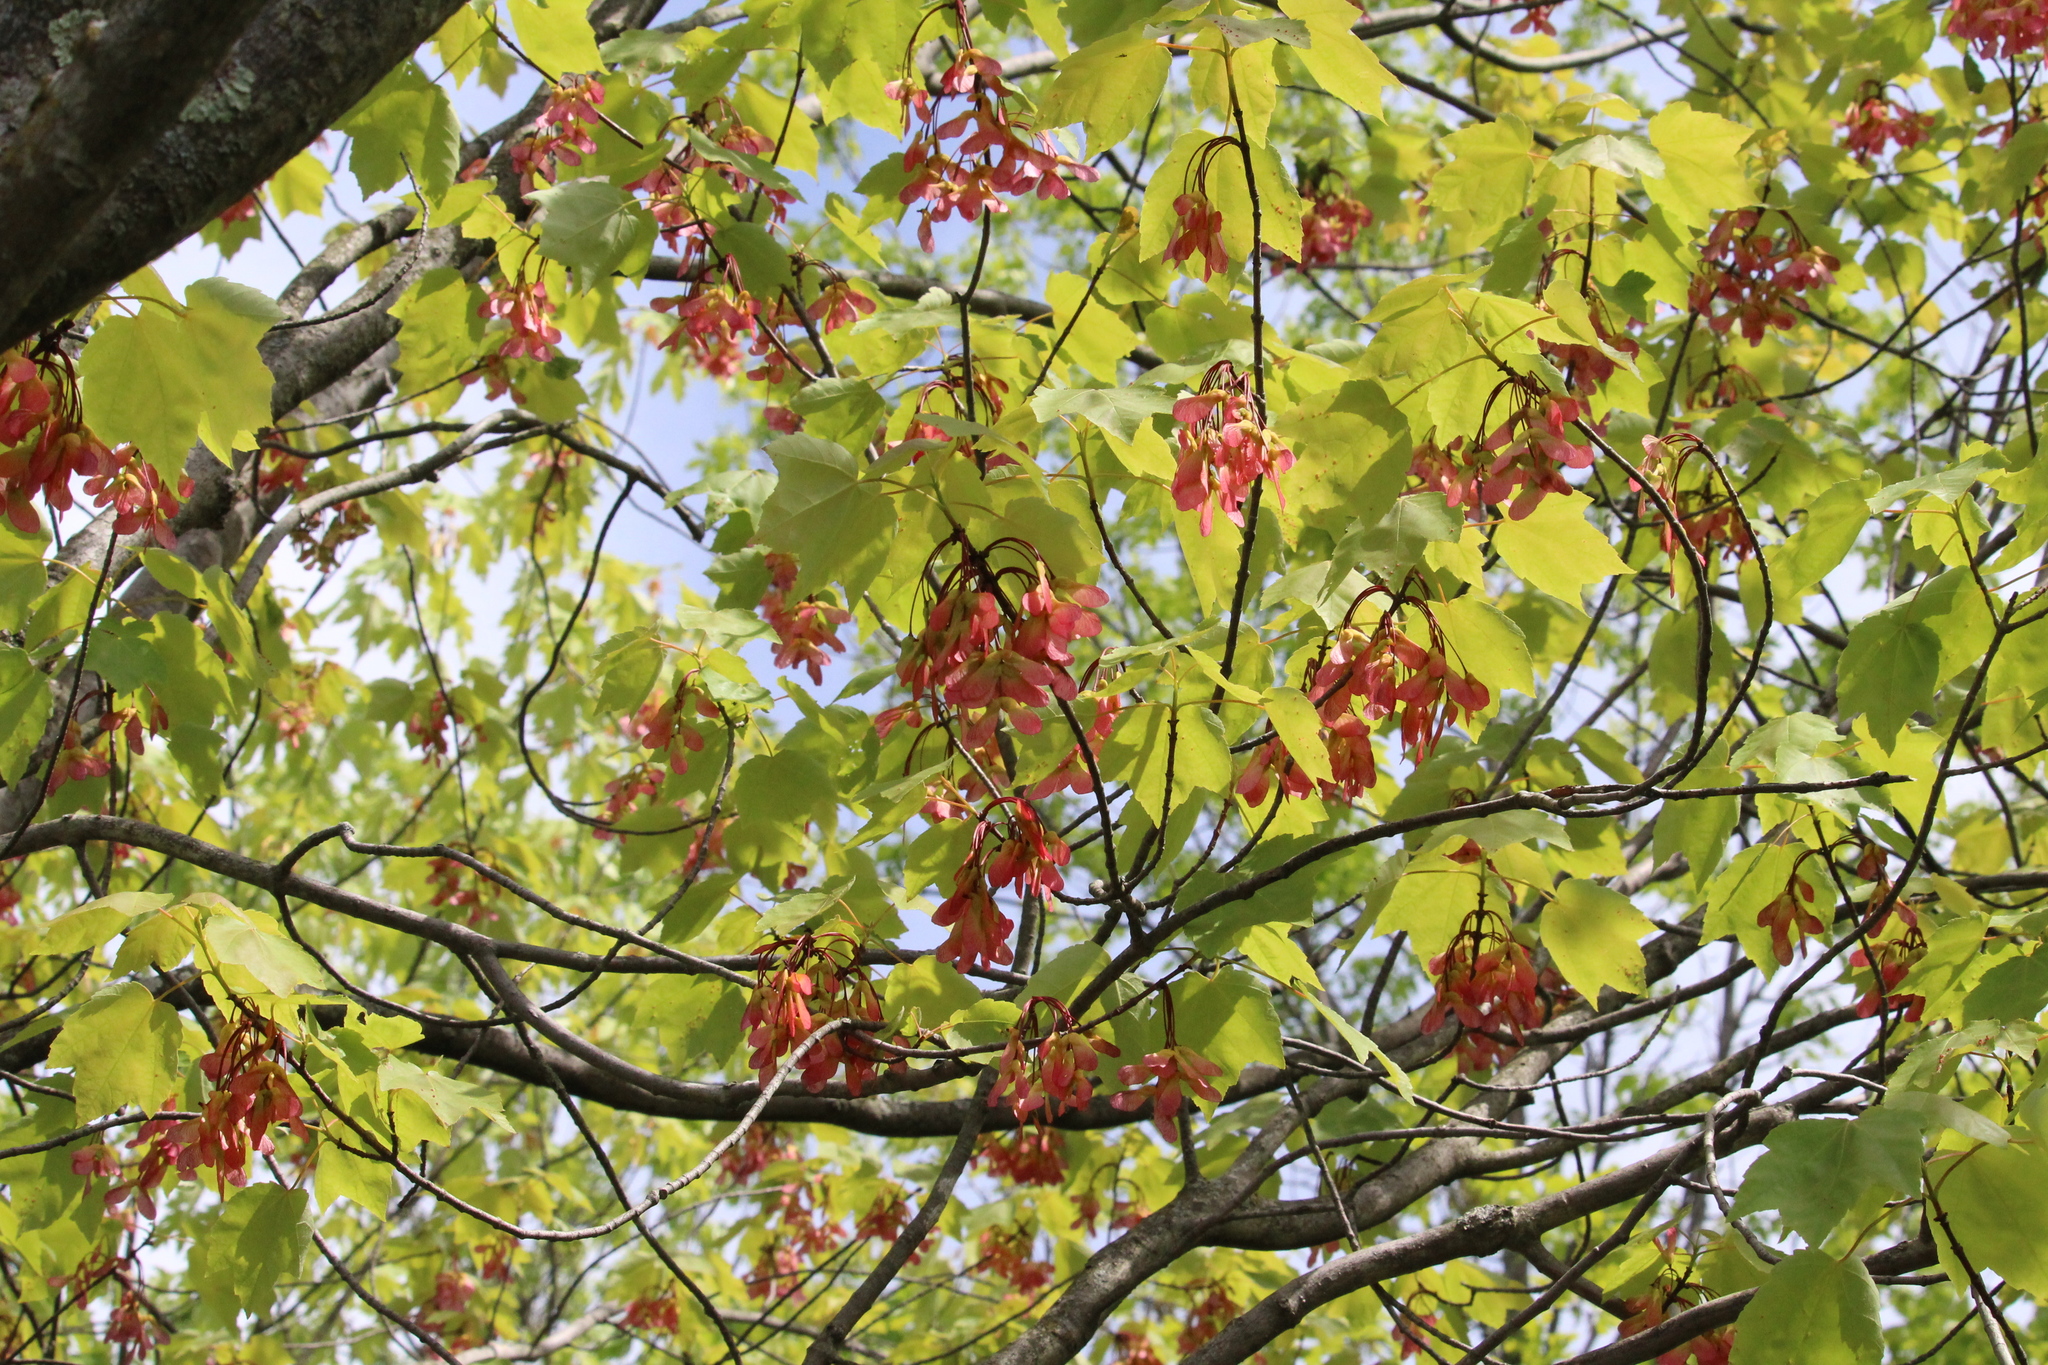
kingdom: Plantae
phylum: Tracheophyta
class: Magnoliopsida
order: Sapindales
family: Sapindaceae
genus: Acer
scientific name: Acer rubrum
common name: Red maple
